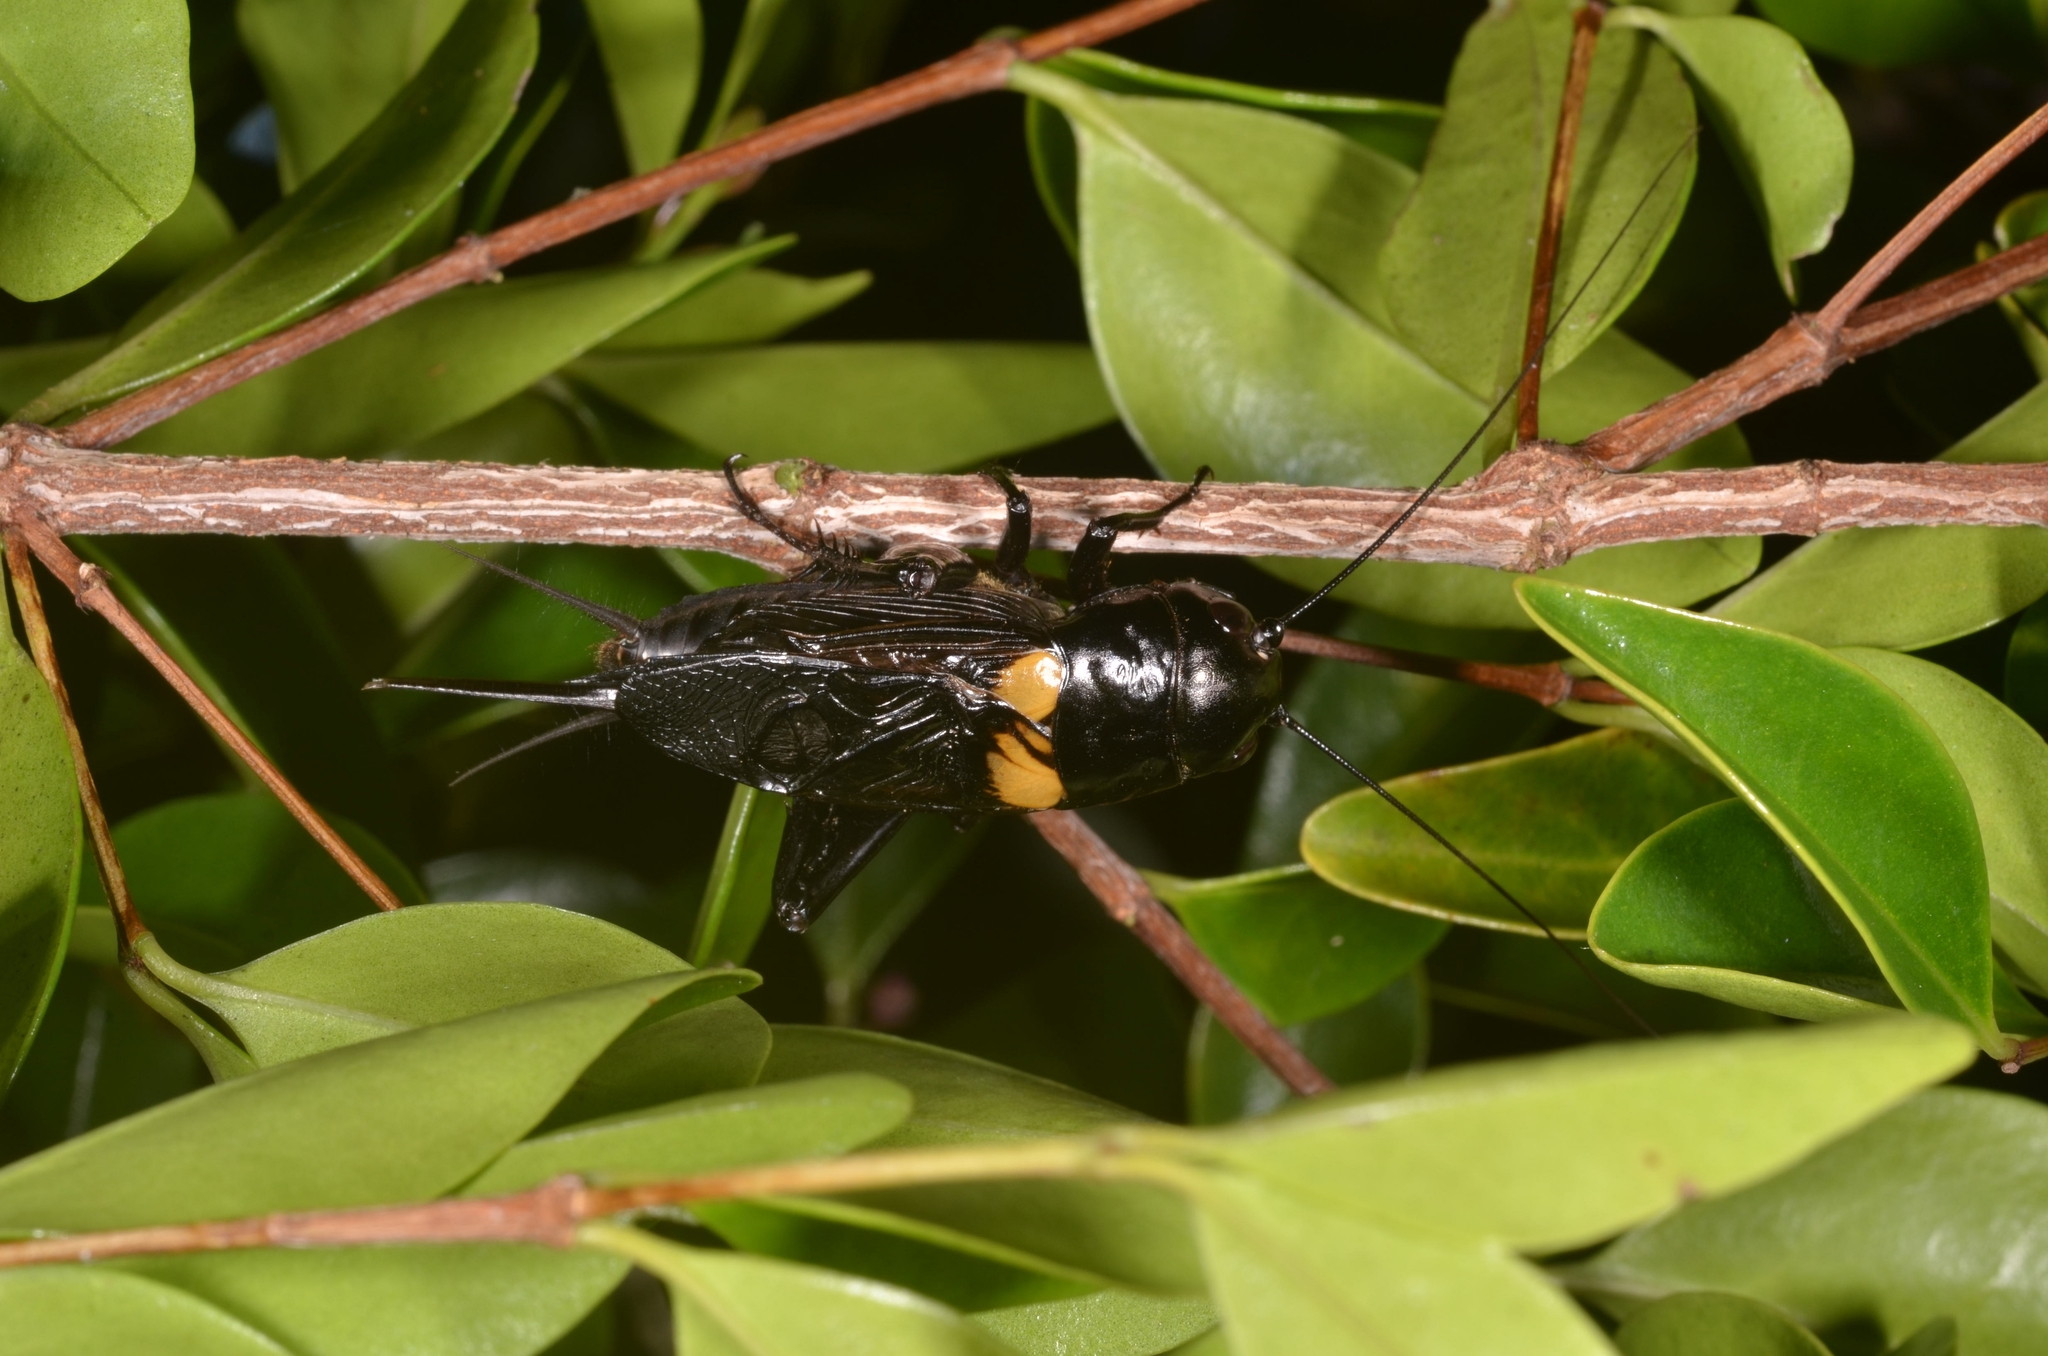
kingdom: Animalia
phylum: Arthropoda
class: Insecta
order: Orthoptera
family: Gryllidae
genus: Gryllus
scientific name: Gryllus bimaculatus
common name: Two-spotted cricket
